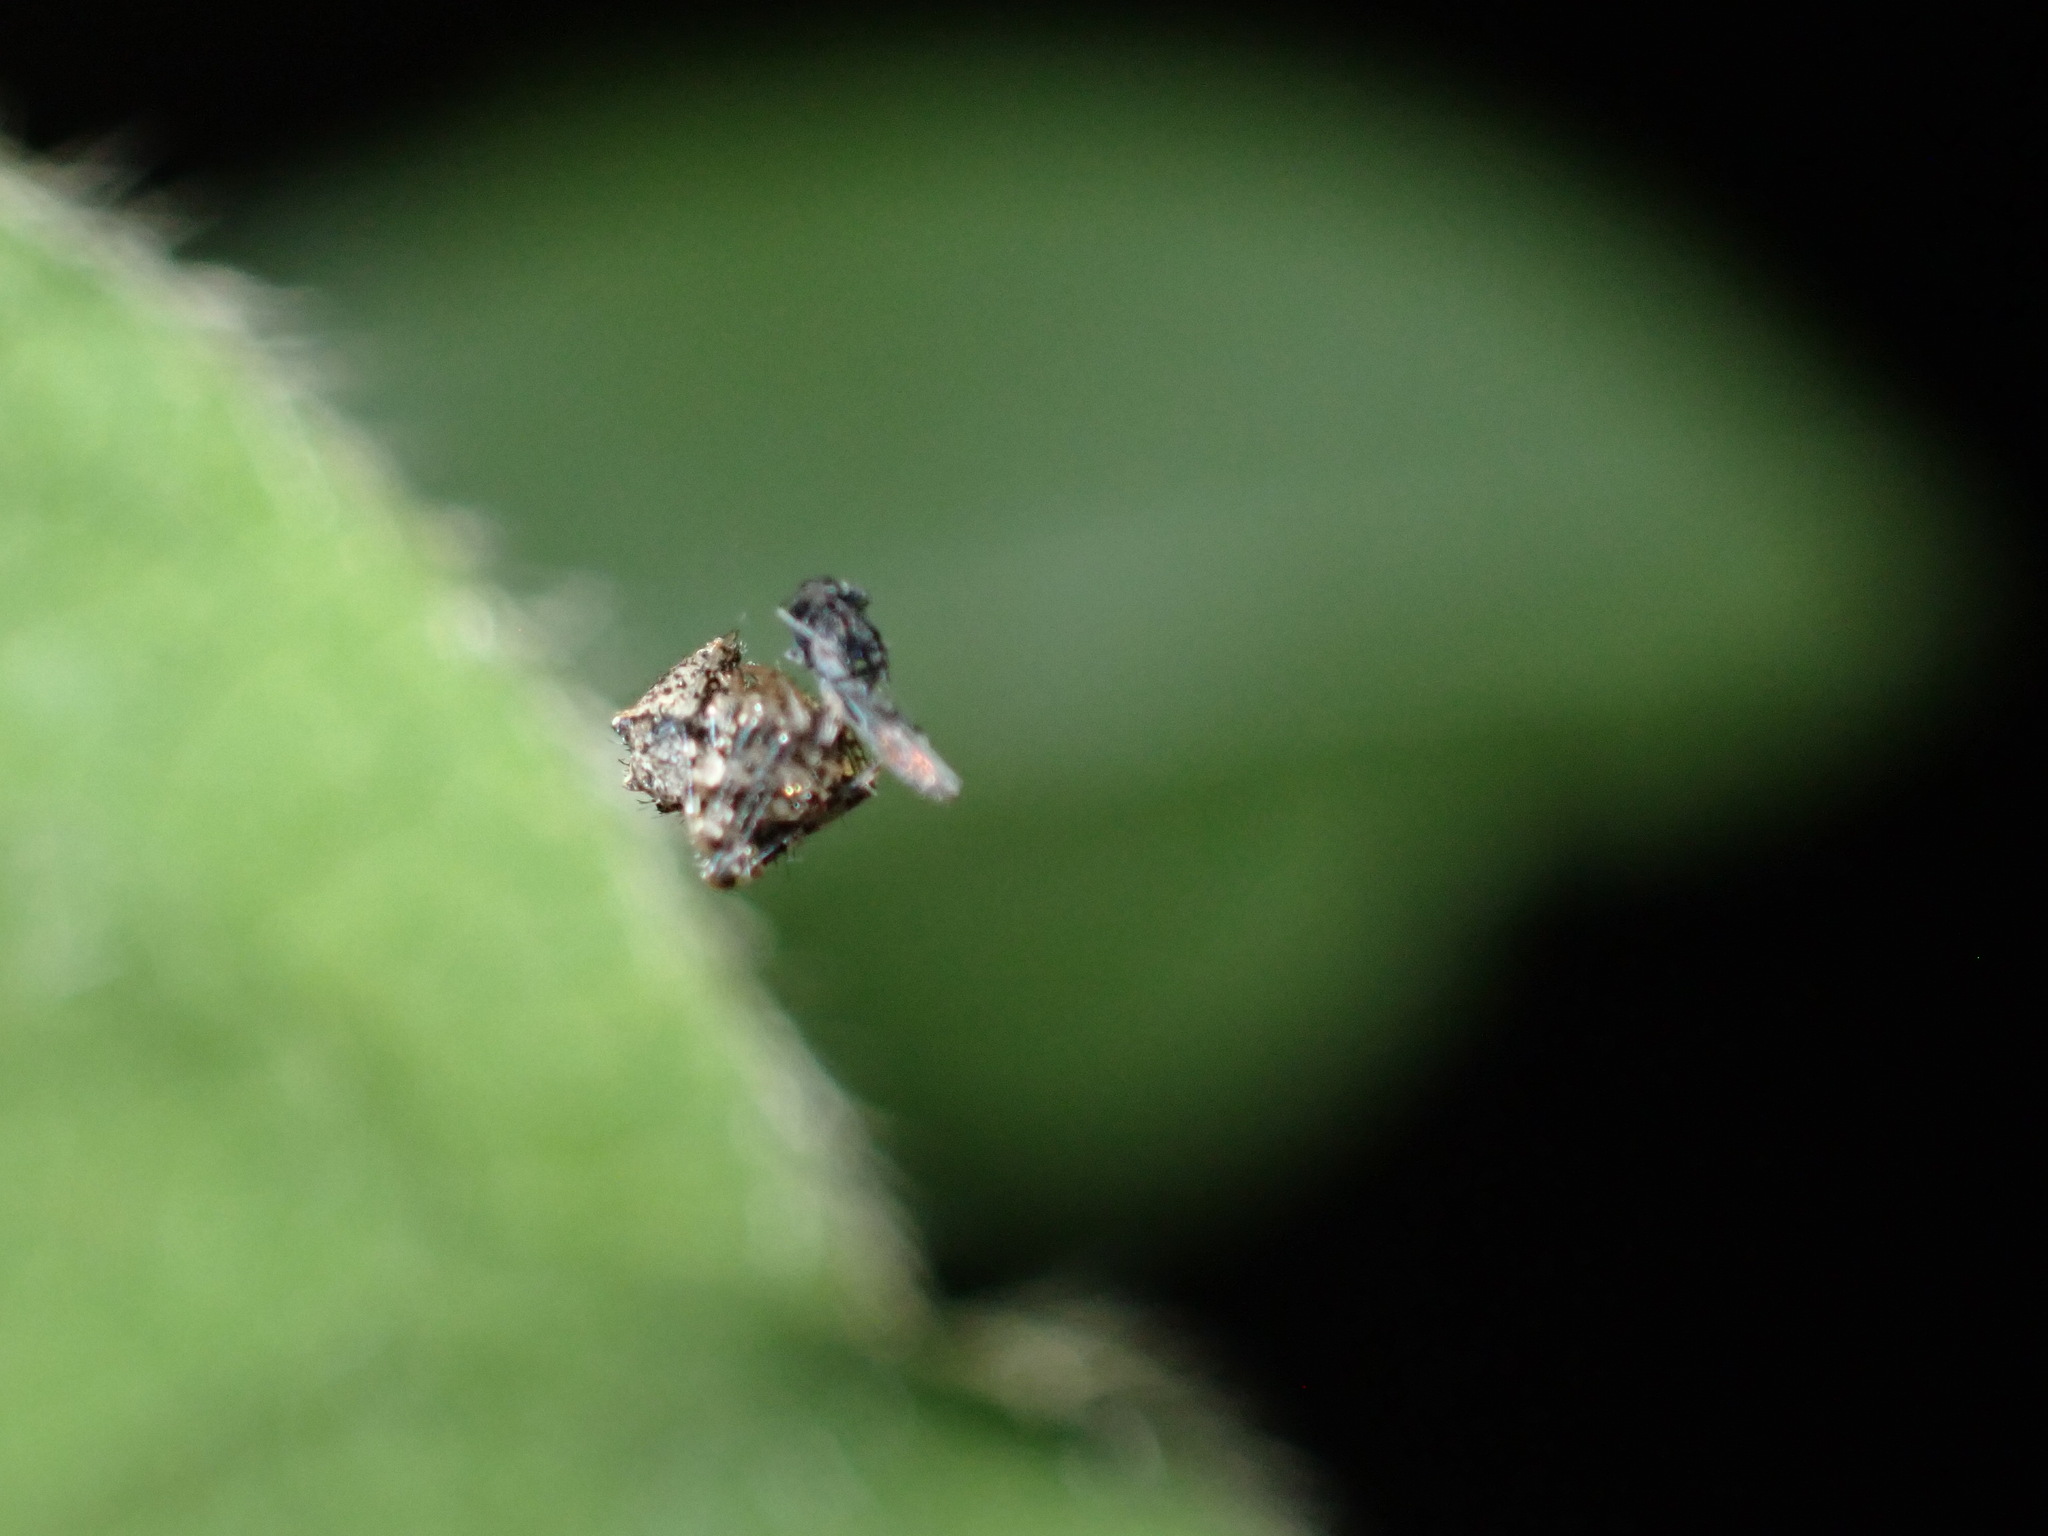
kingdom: Animalia
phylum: Arthropoda
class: Arachnida
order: Araneae
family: Mimetidae
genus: Ero
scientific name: Ero aphana
